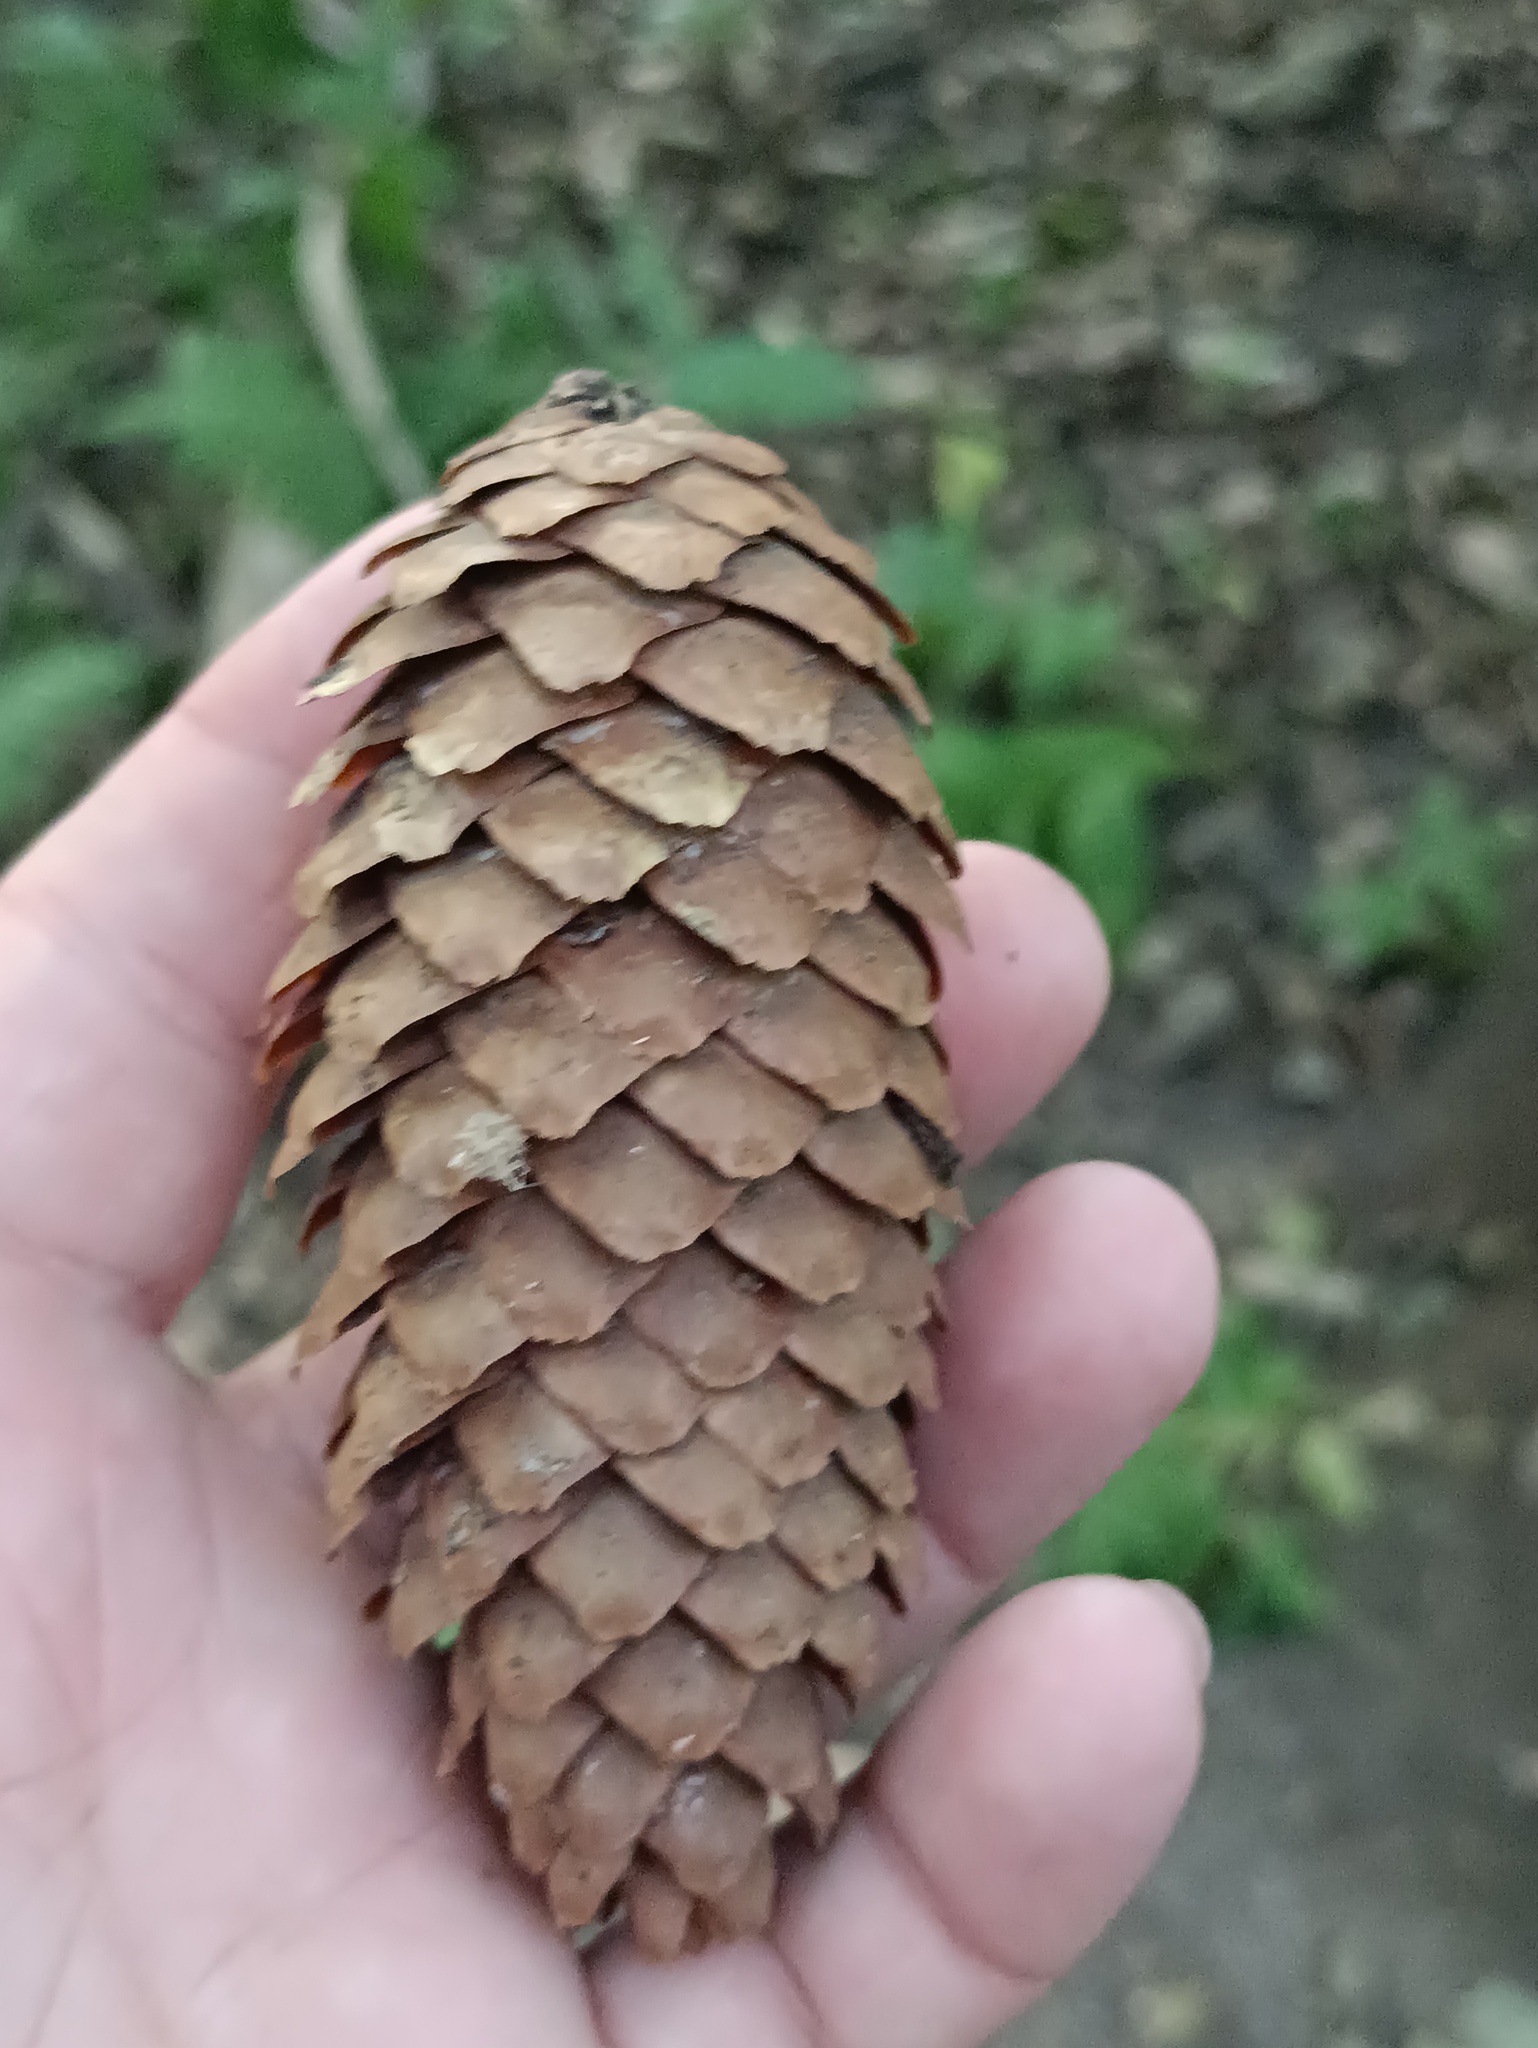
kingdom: Plantae
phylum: Tracheophyta
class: Pinopsida
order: Pinales
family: Pinaceae
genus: Picea
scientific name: Picea abies
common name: Norway spruce
